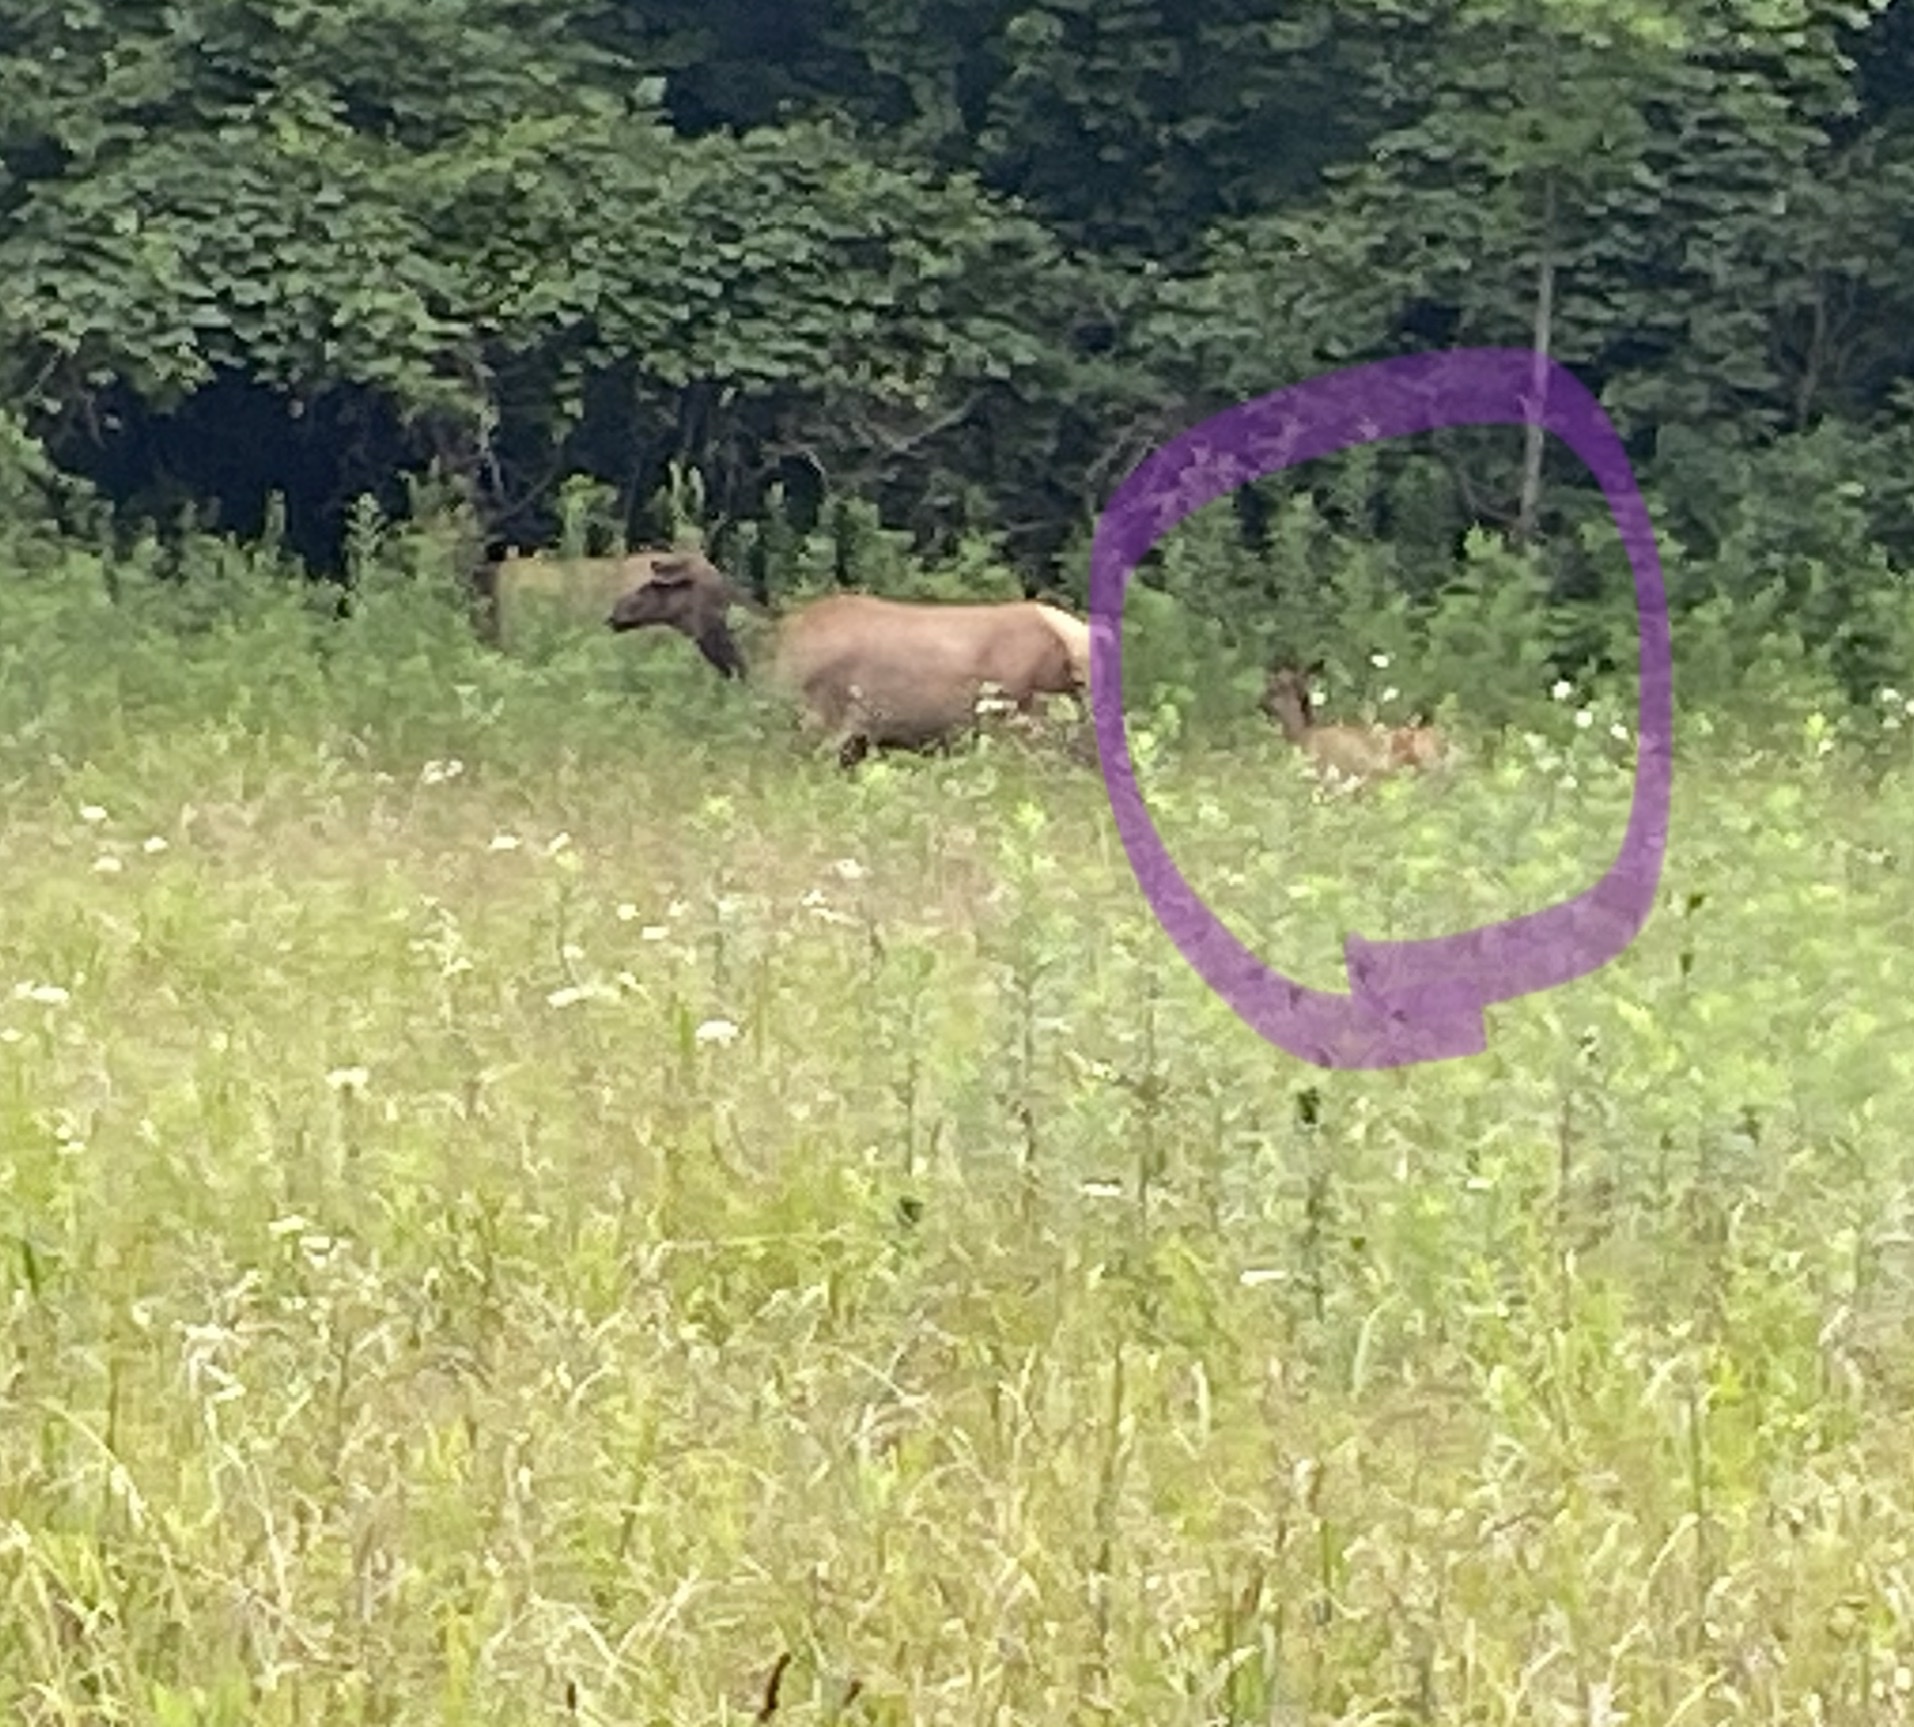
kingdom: Animalia
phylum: Chordata
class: Mammalia
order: Artiodactyla
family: Cervidae
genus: Cervus
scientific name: Cervus elaphus
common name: Red deer
